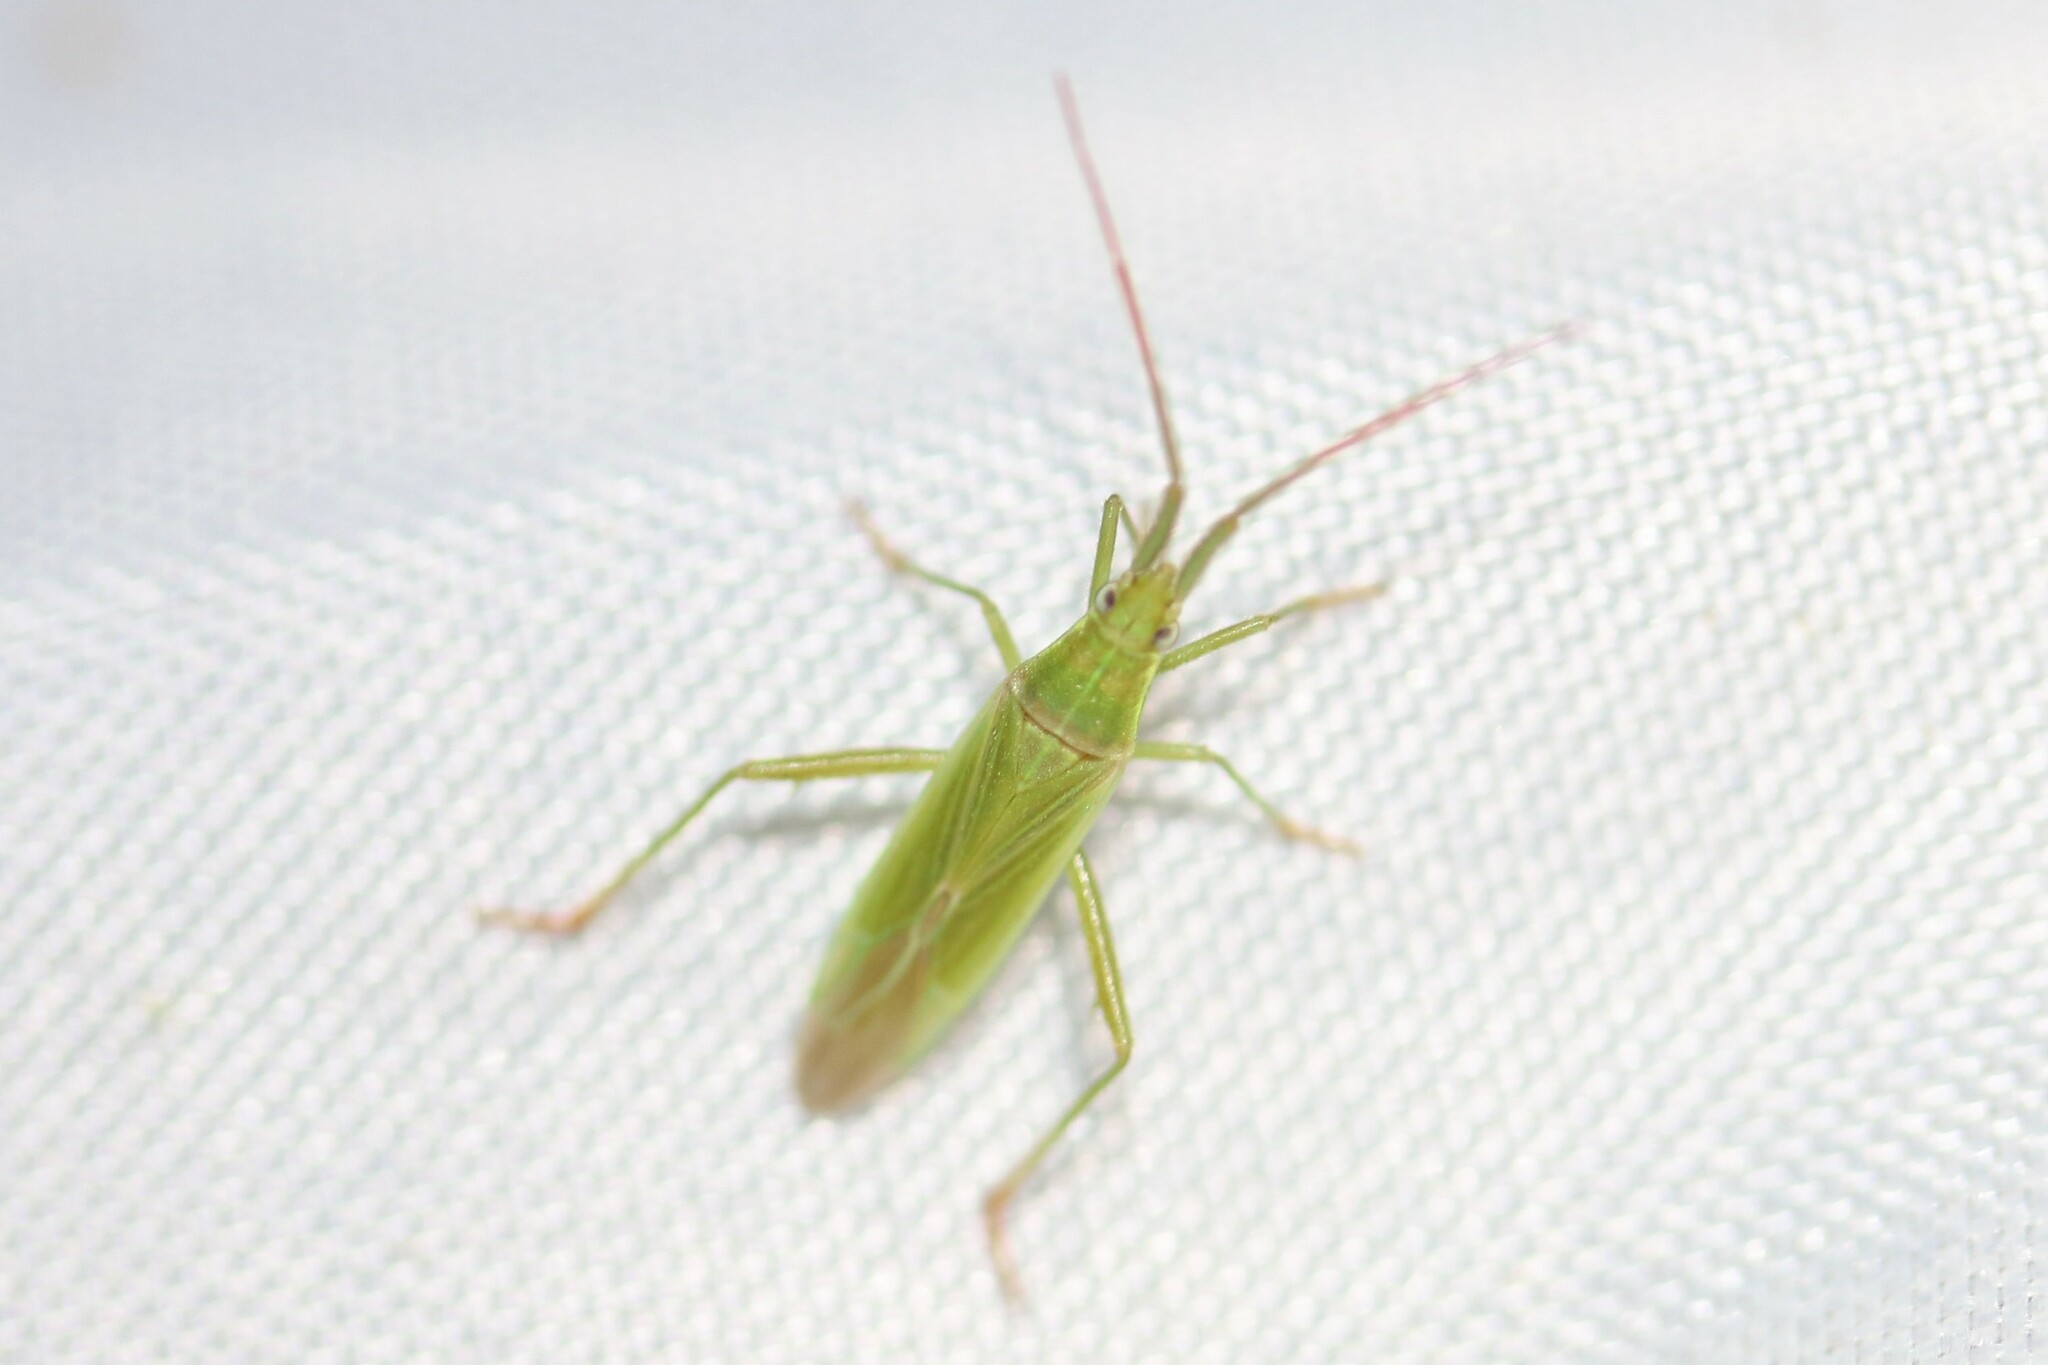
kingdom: Animalia
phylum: Arthropoda
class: Insecta
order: Hemiptera
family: Miridae
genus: Stenodema
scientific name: Stenodema calcarata
